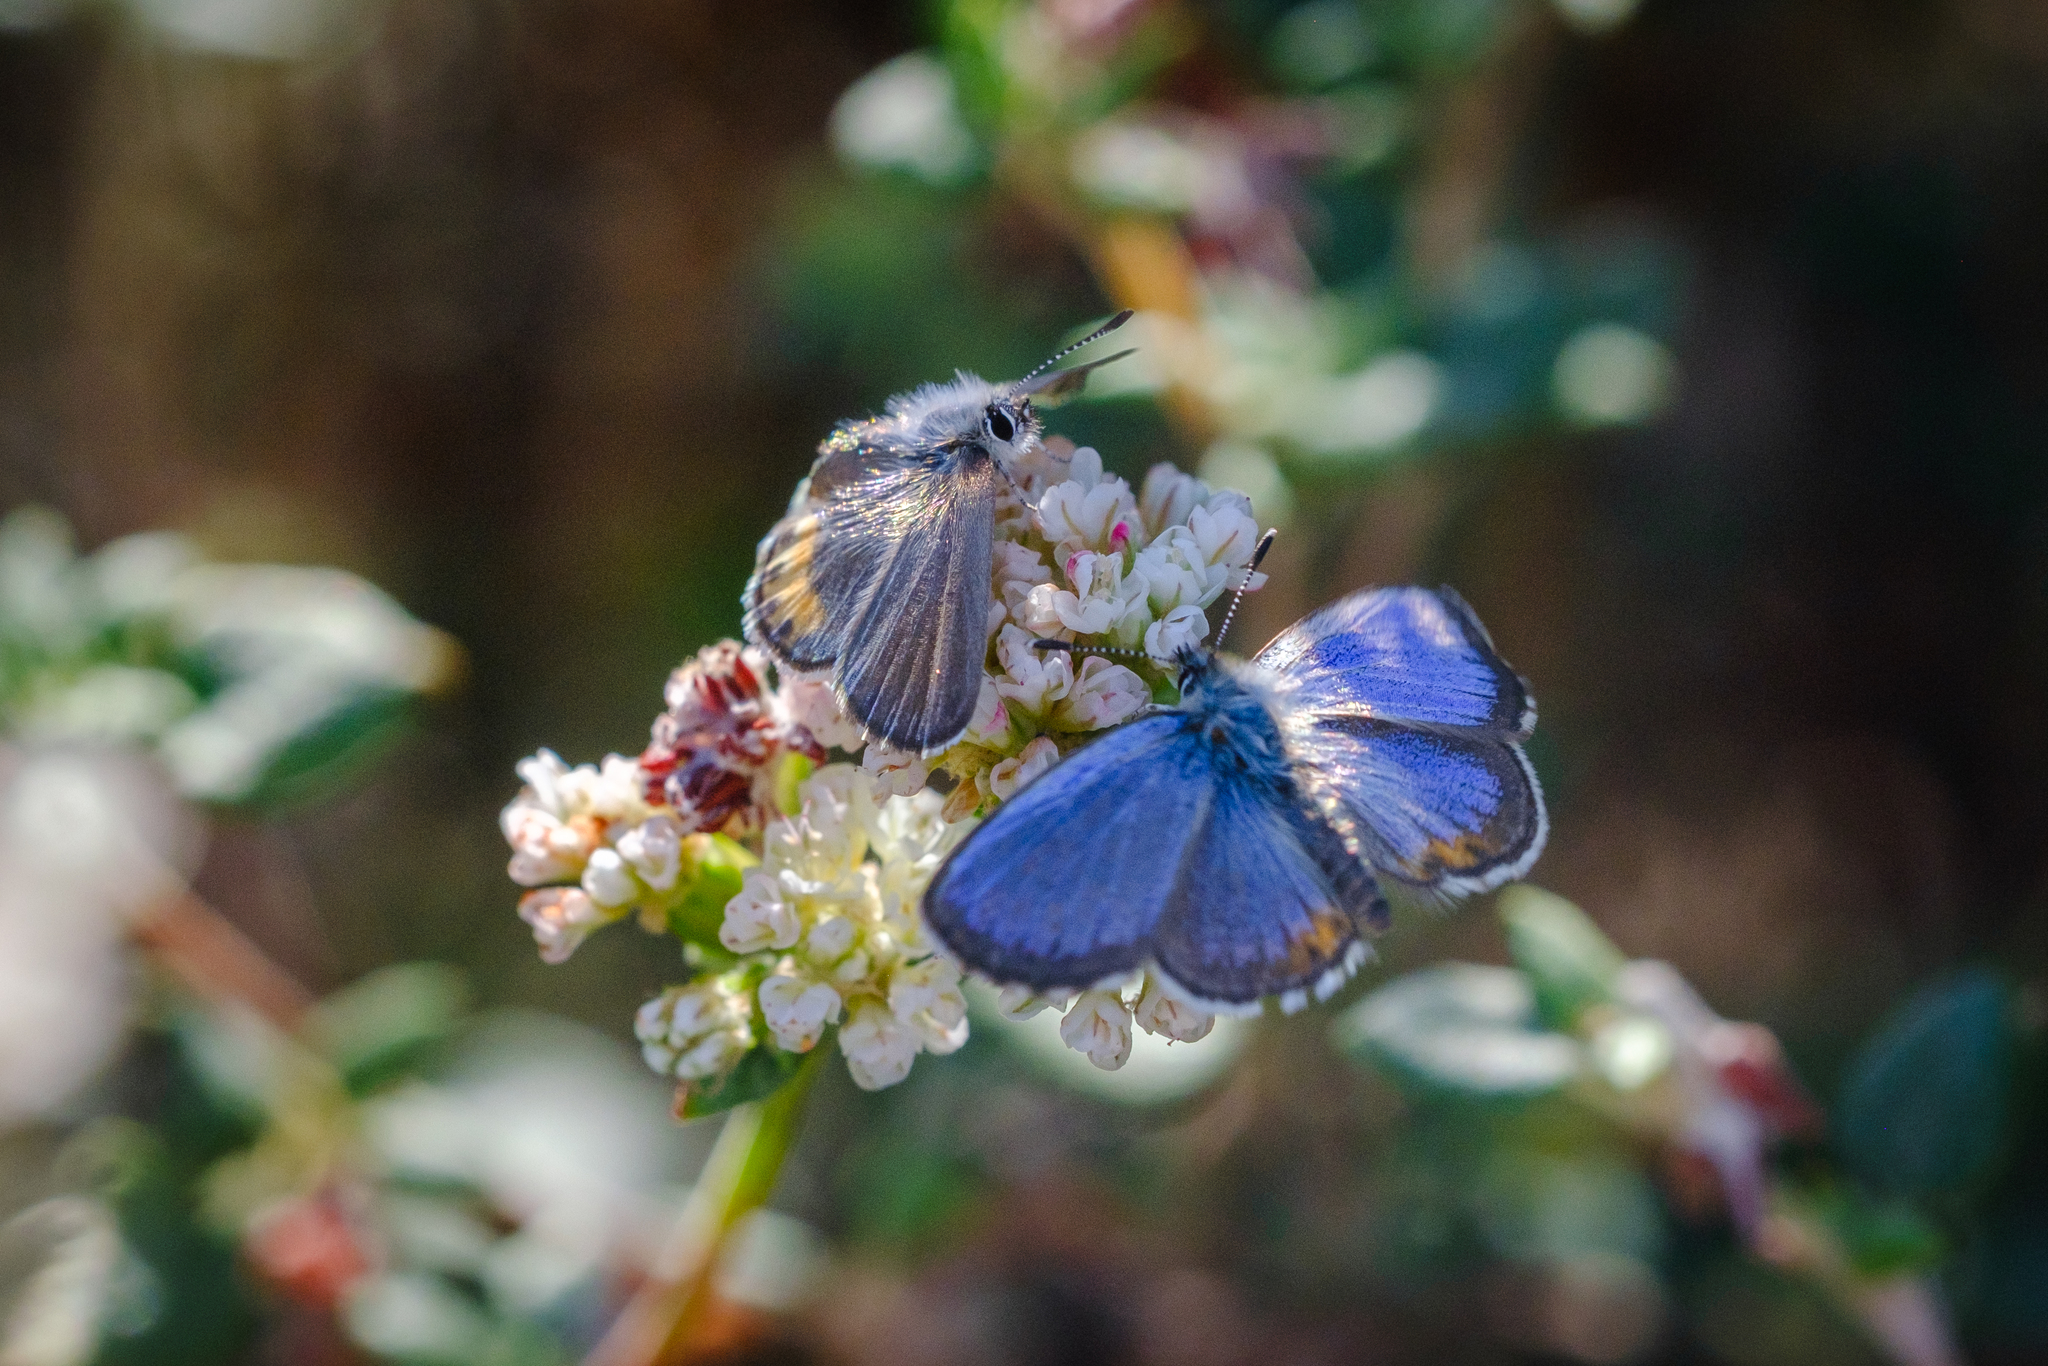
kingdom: Animalia
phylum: Arthropoda
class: Insecta
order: Lepidoptera
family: Lycaenidae
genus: Euphilotes
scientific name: Euphilotes battoides
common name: Square-spotted blue
